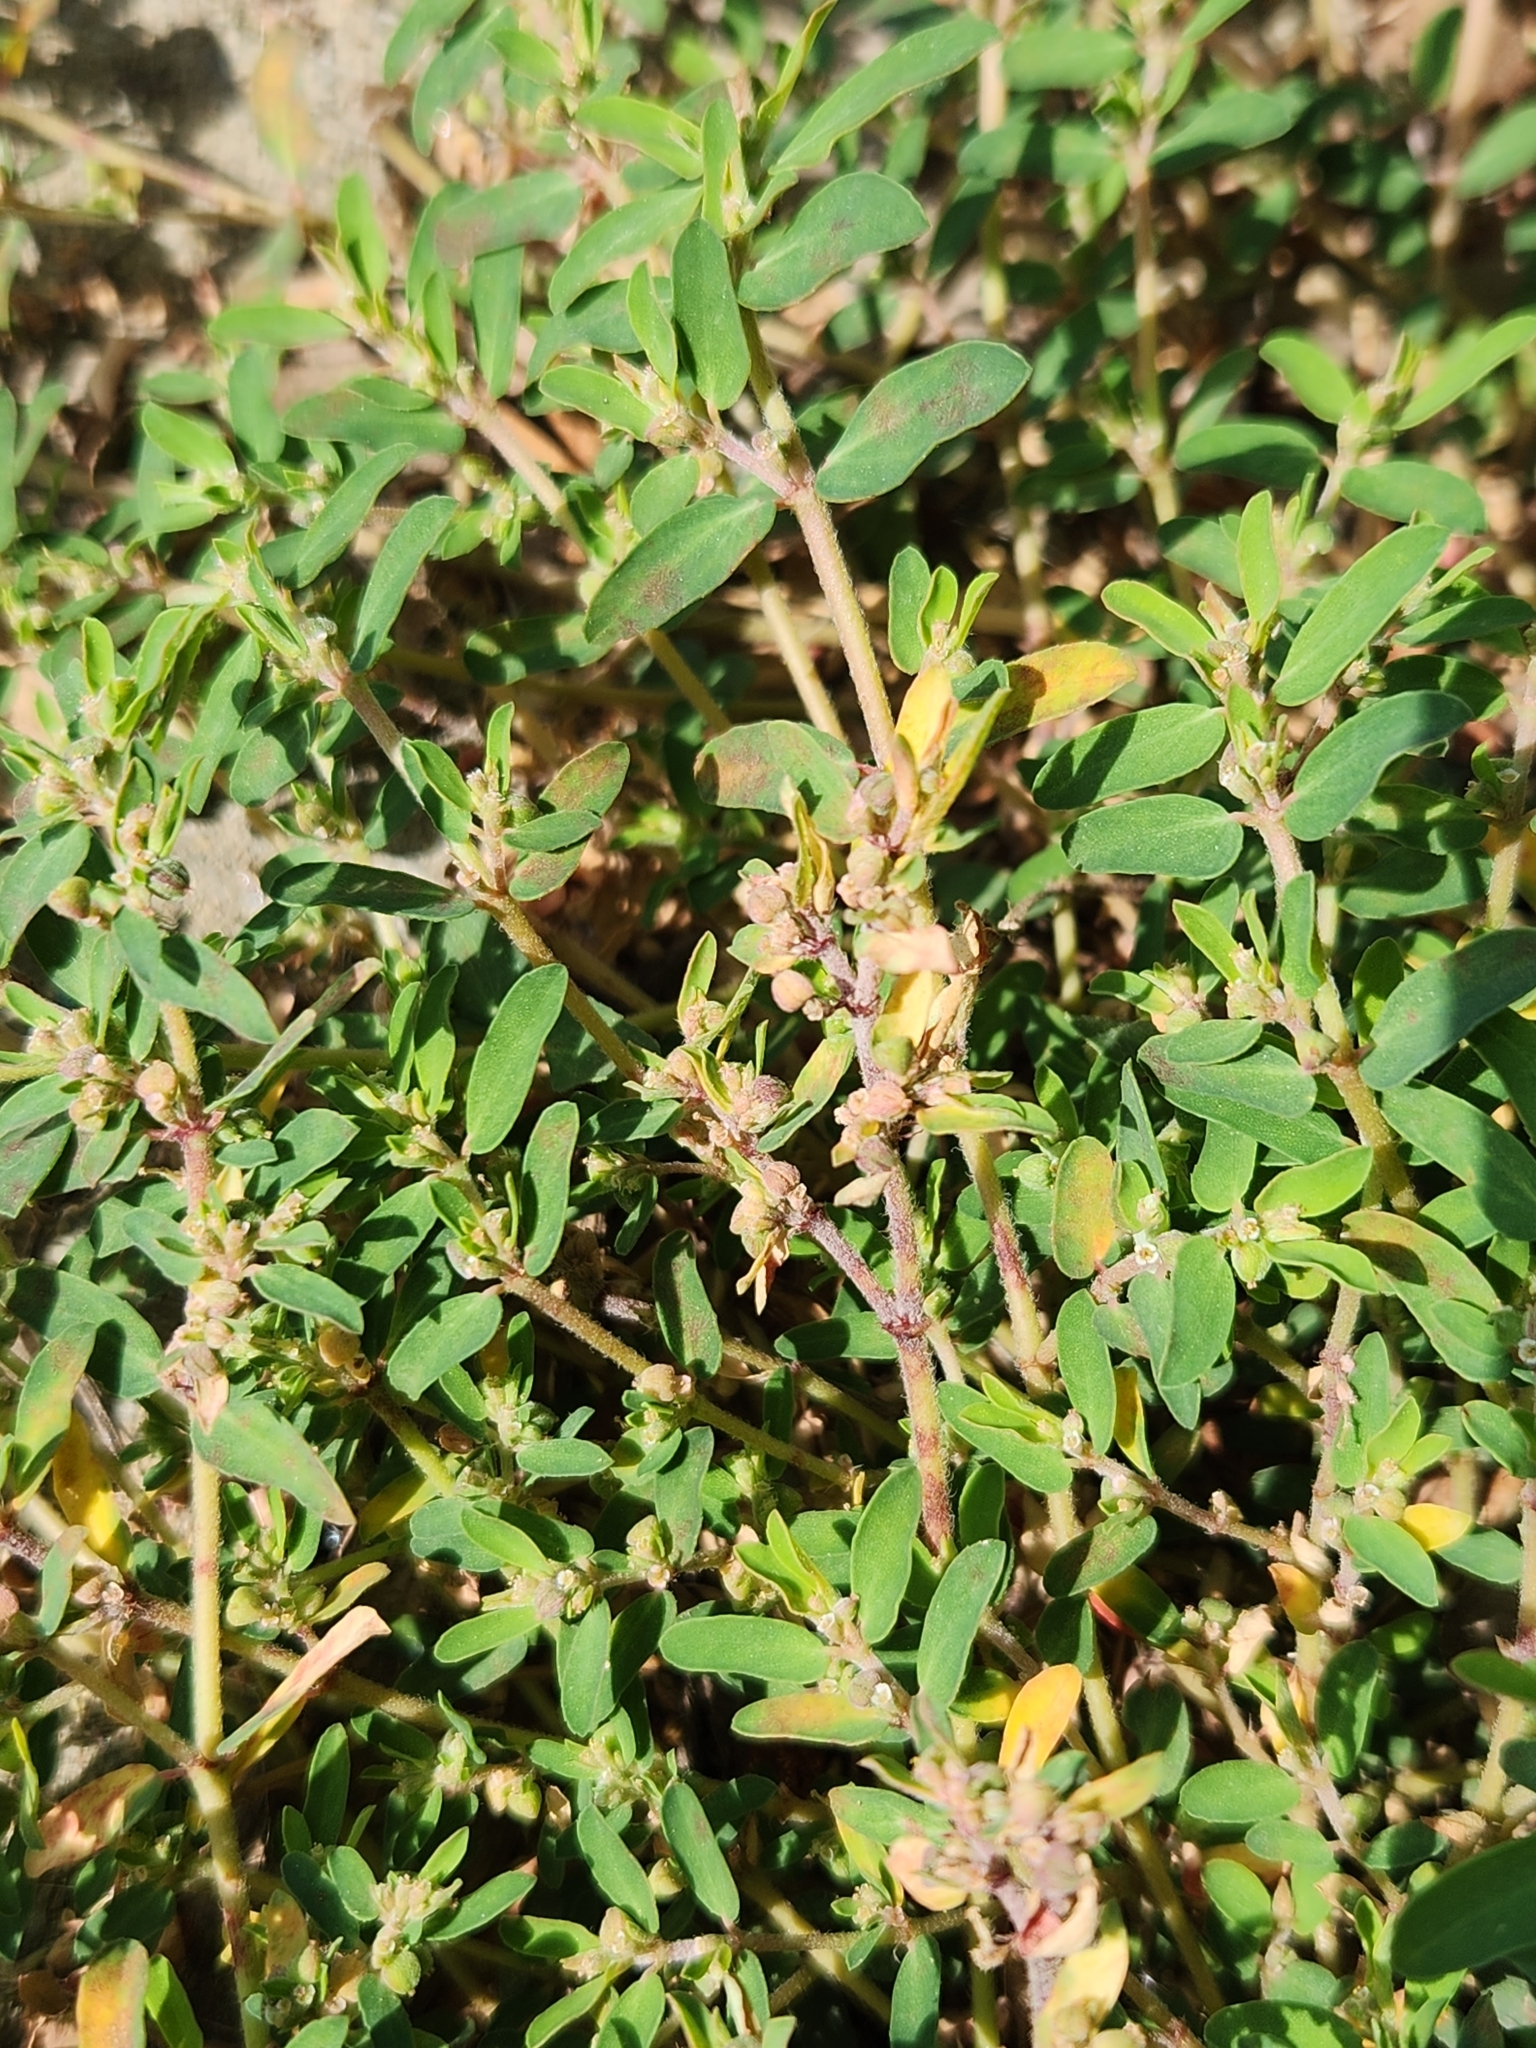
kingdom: Plantae
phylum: Tracheophyta
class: Magnoliopsida
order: Malpighiales
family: Euphorbiaceae
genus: Euphorbia
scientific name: Euphorbia maculata
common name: Spotted spurge
